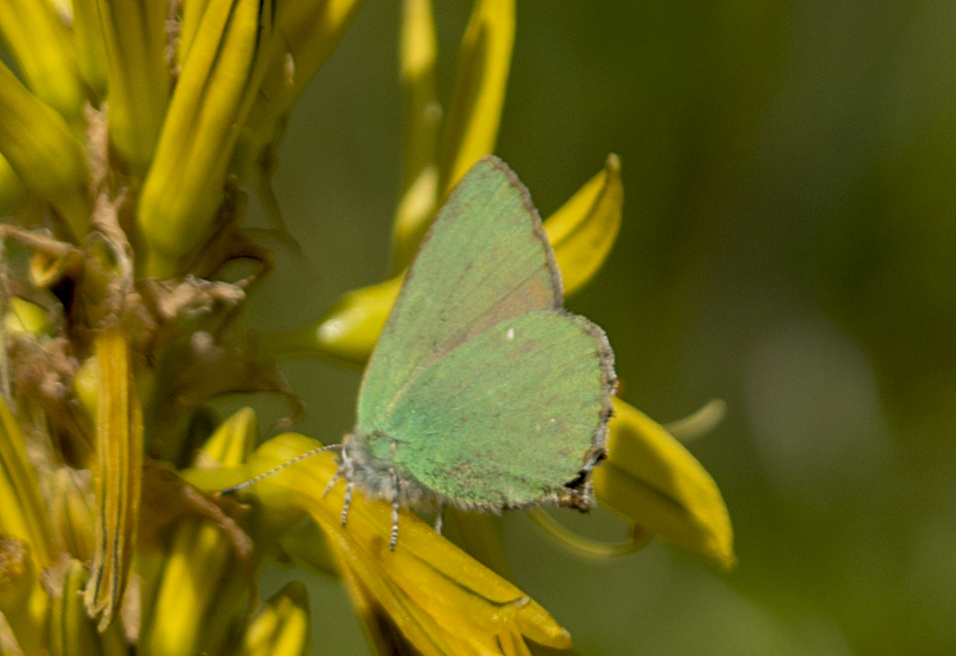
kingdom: Animalia
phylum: Arthropoda
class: Insecta
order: Lepidoptera
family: Lycaenidae
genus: Callophrys
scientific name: Callophrys rubi
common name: Green hairstreak
